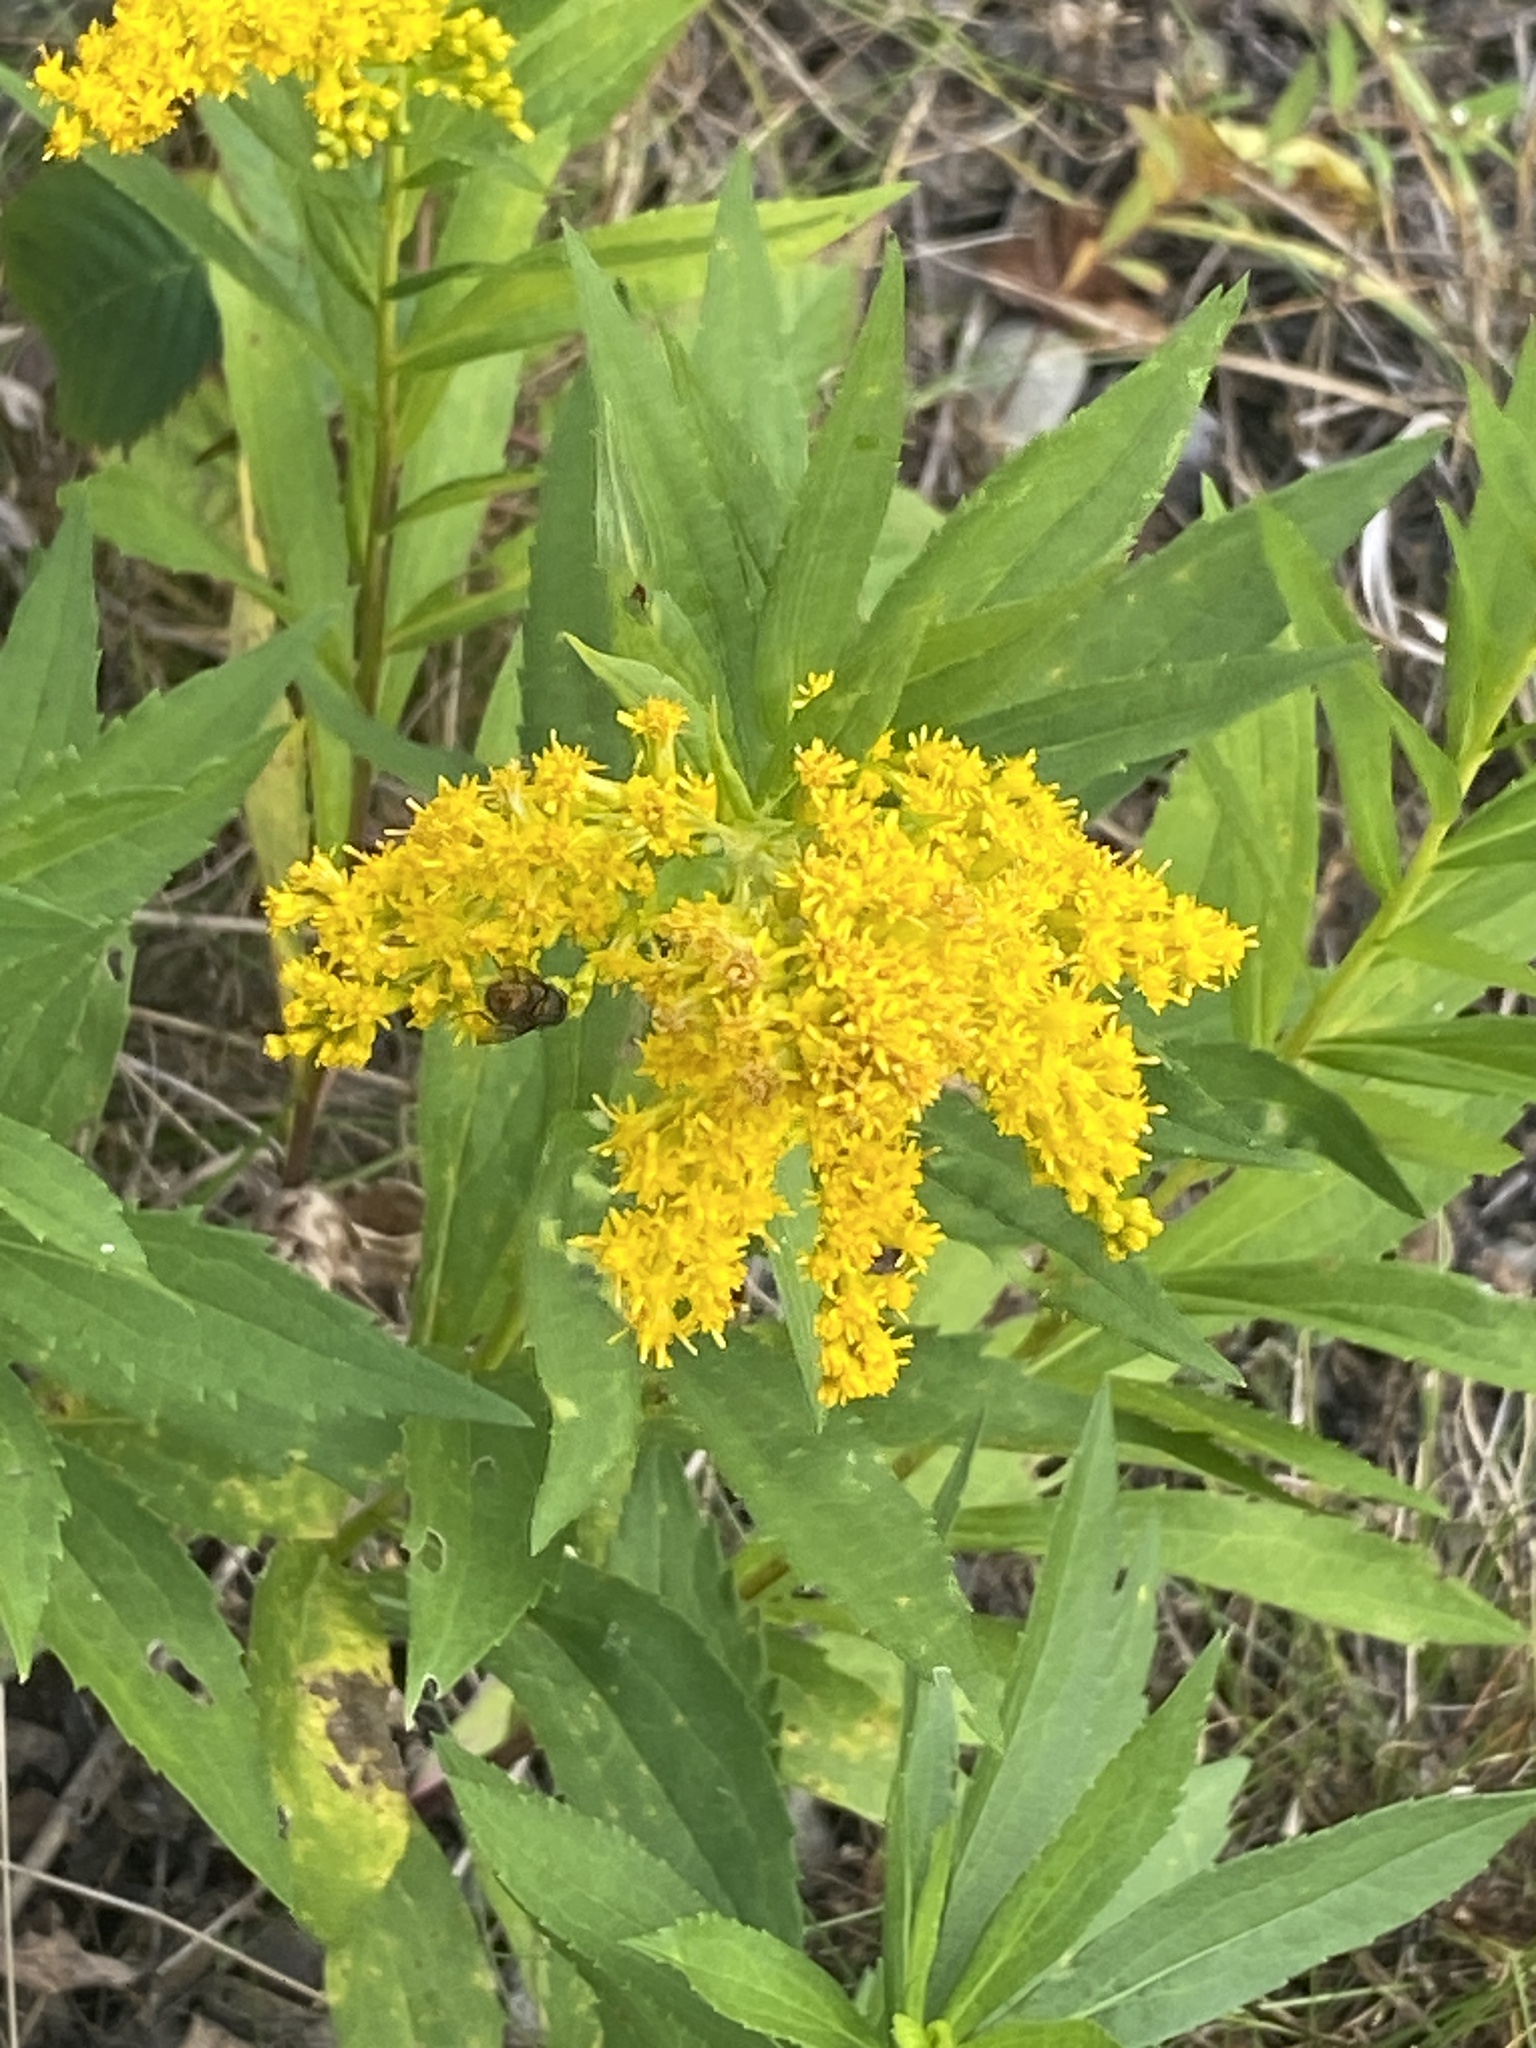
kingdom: Plantae
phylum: Tracheophyta
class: Magnoliopsida
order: Asterales
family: Asteraceae
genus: Solidago
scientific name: Solidago rugosa
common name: Rough-stemmed goldenrod
